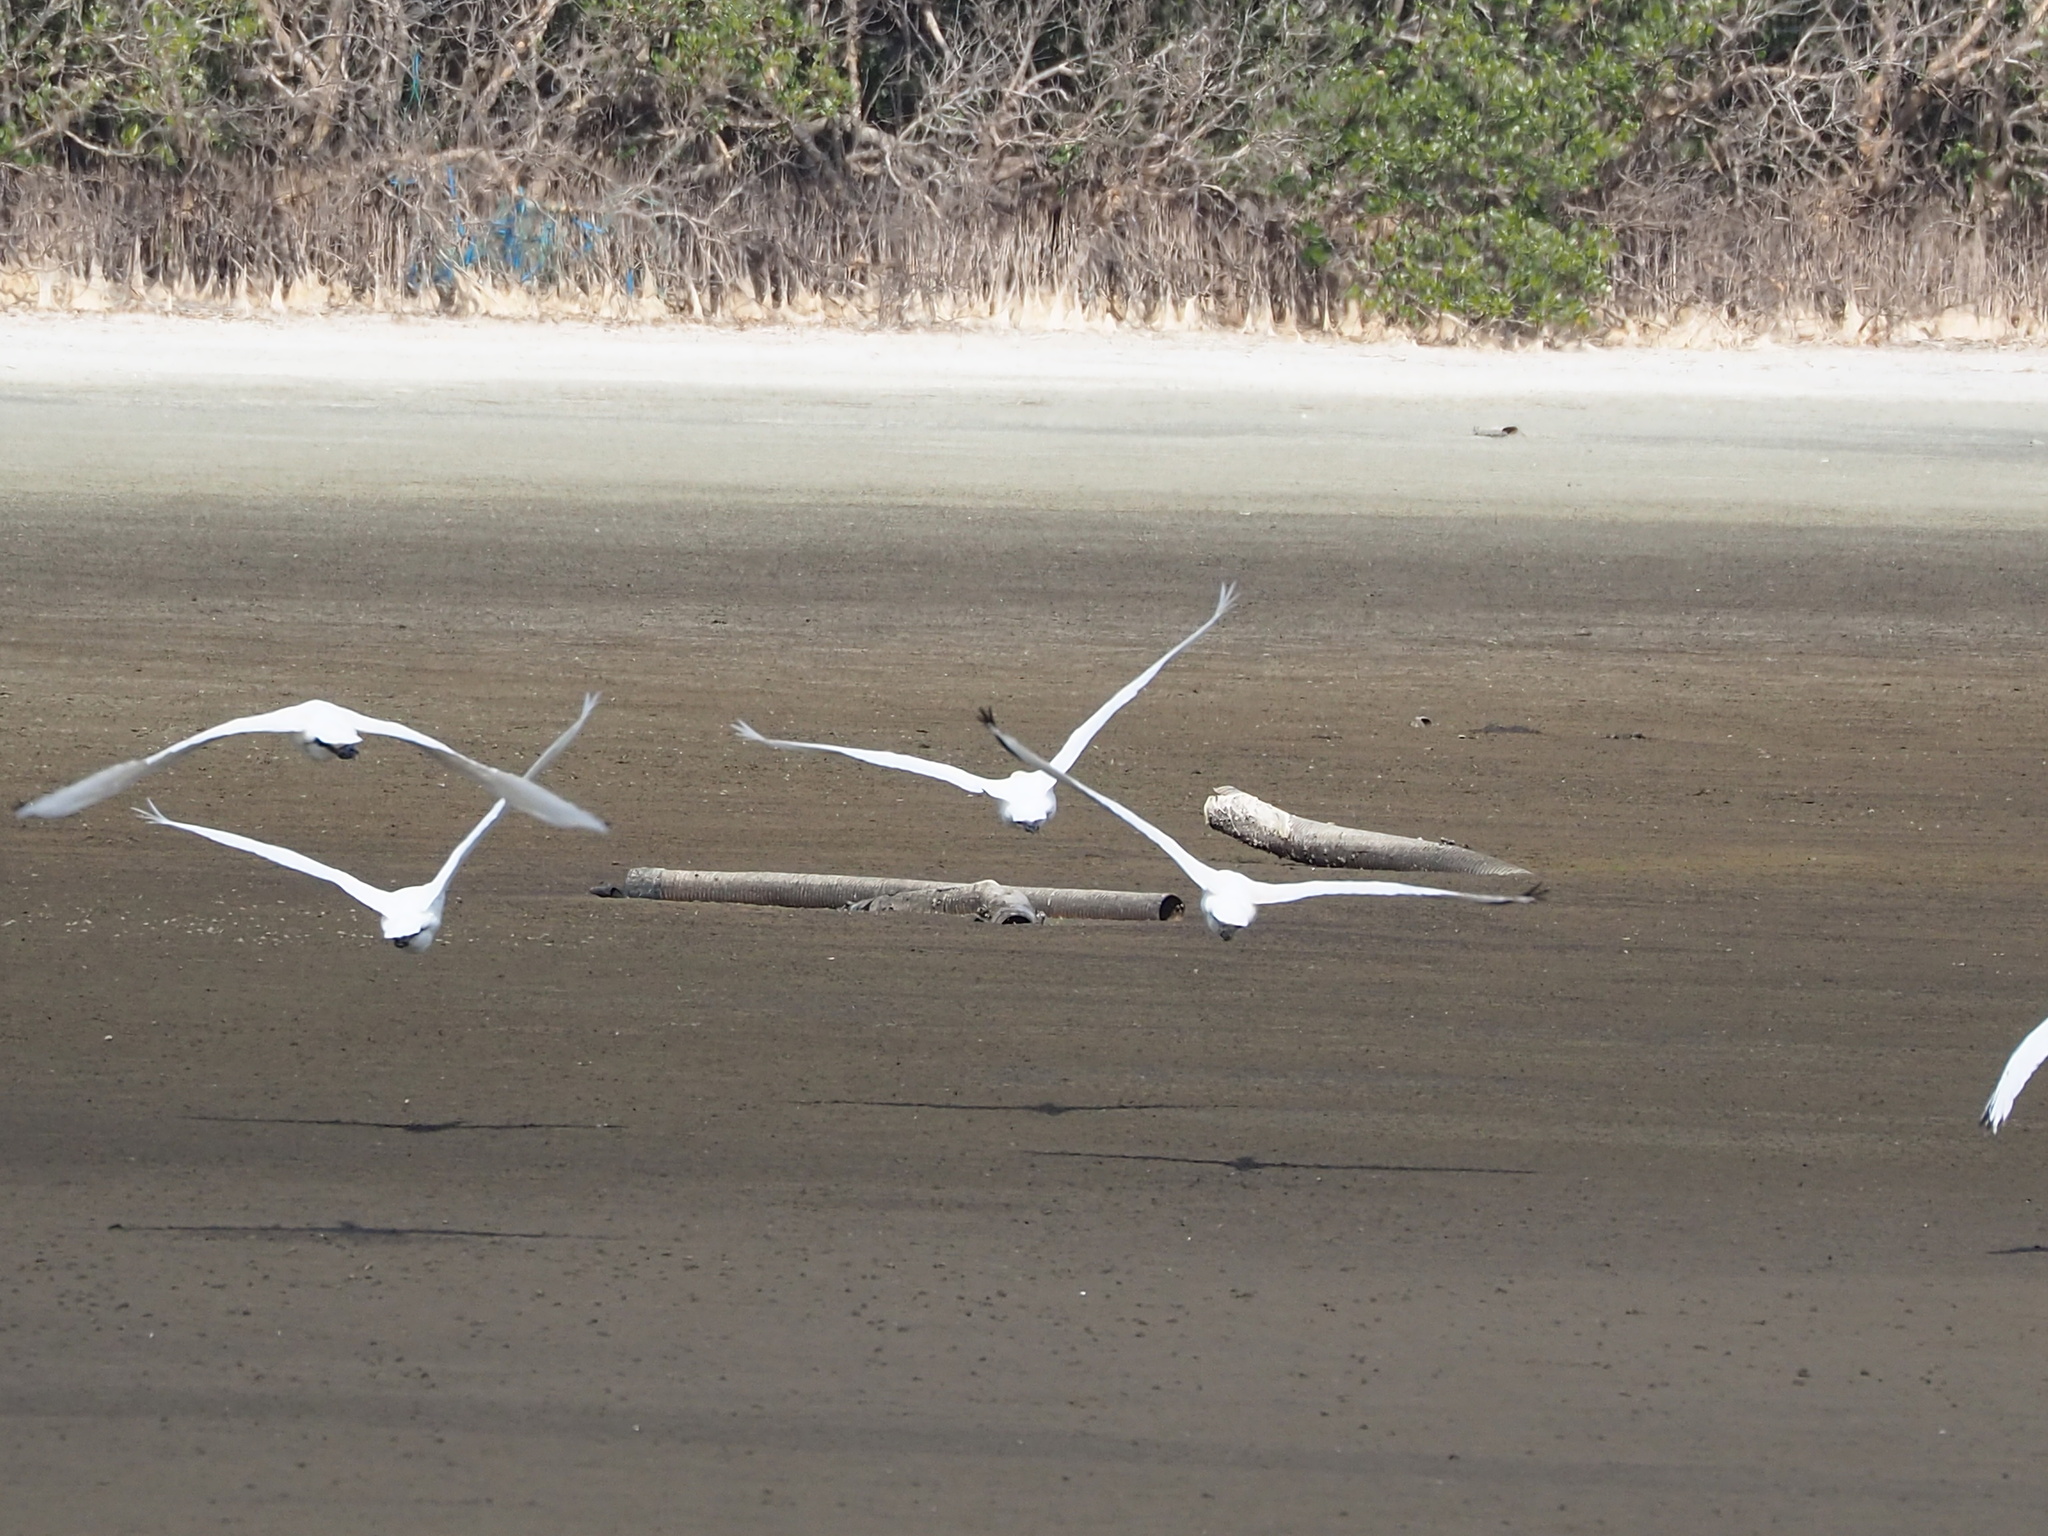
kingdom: Animalia
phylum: Chordata
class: Aves
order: Pelecaniformes
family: Threskiornithidae
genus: Platalea
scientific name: Platalea minor
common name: Black-faced spoonbill
